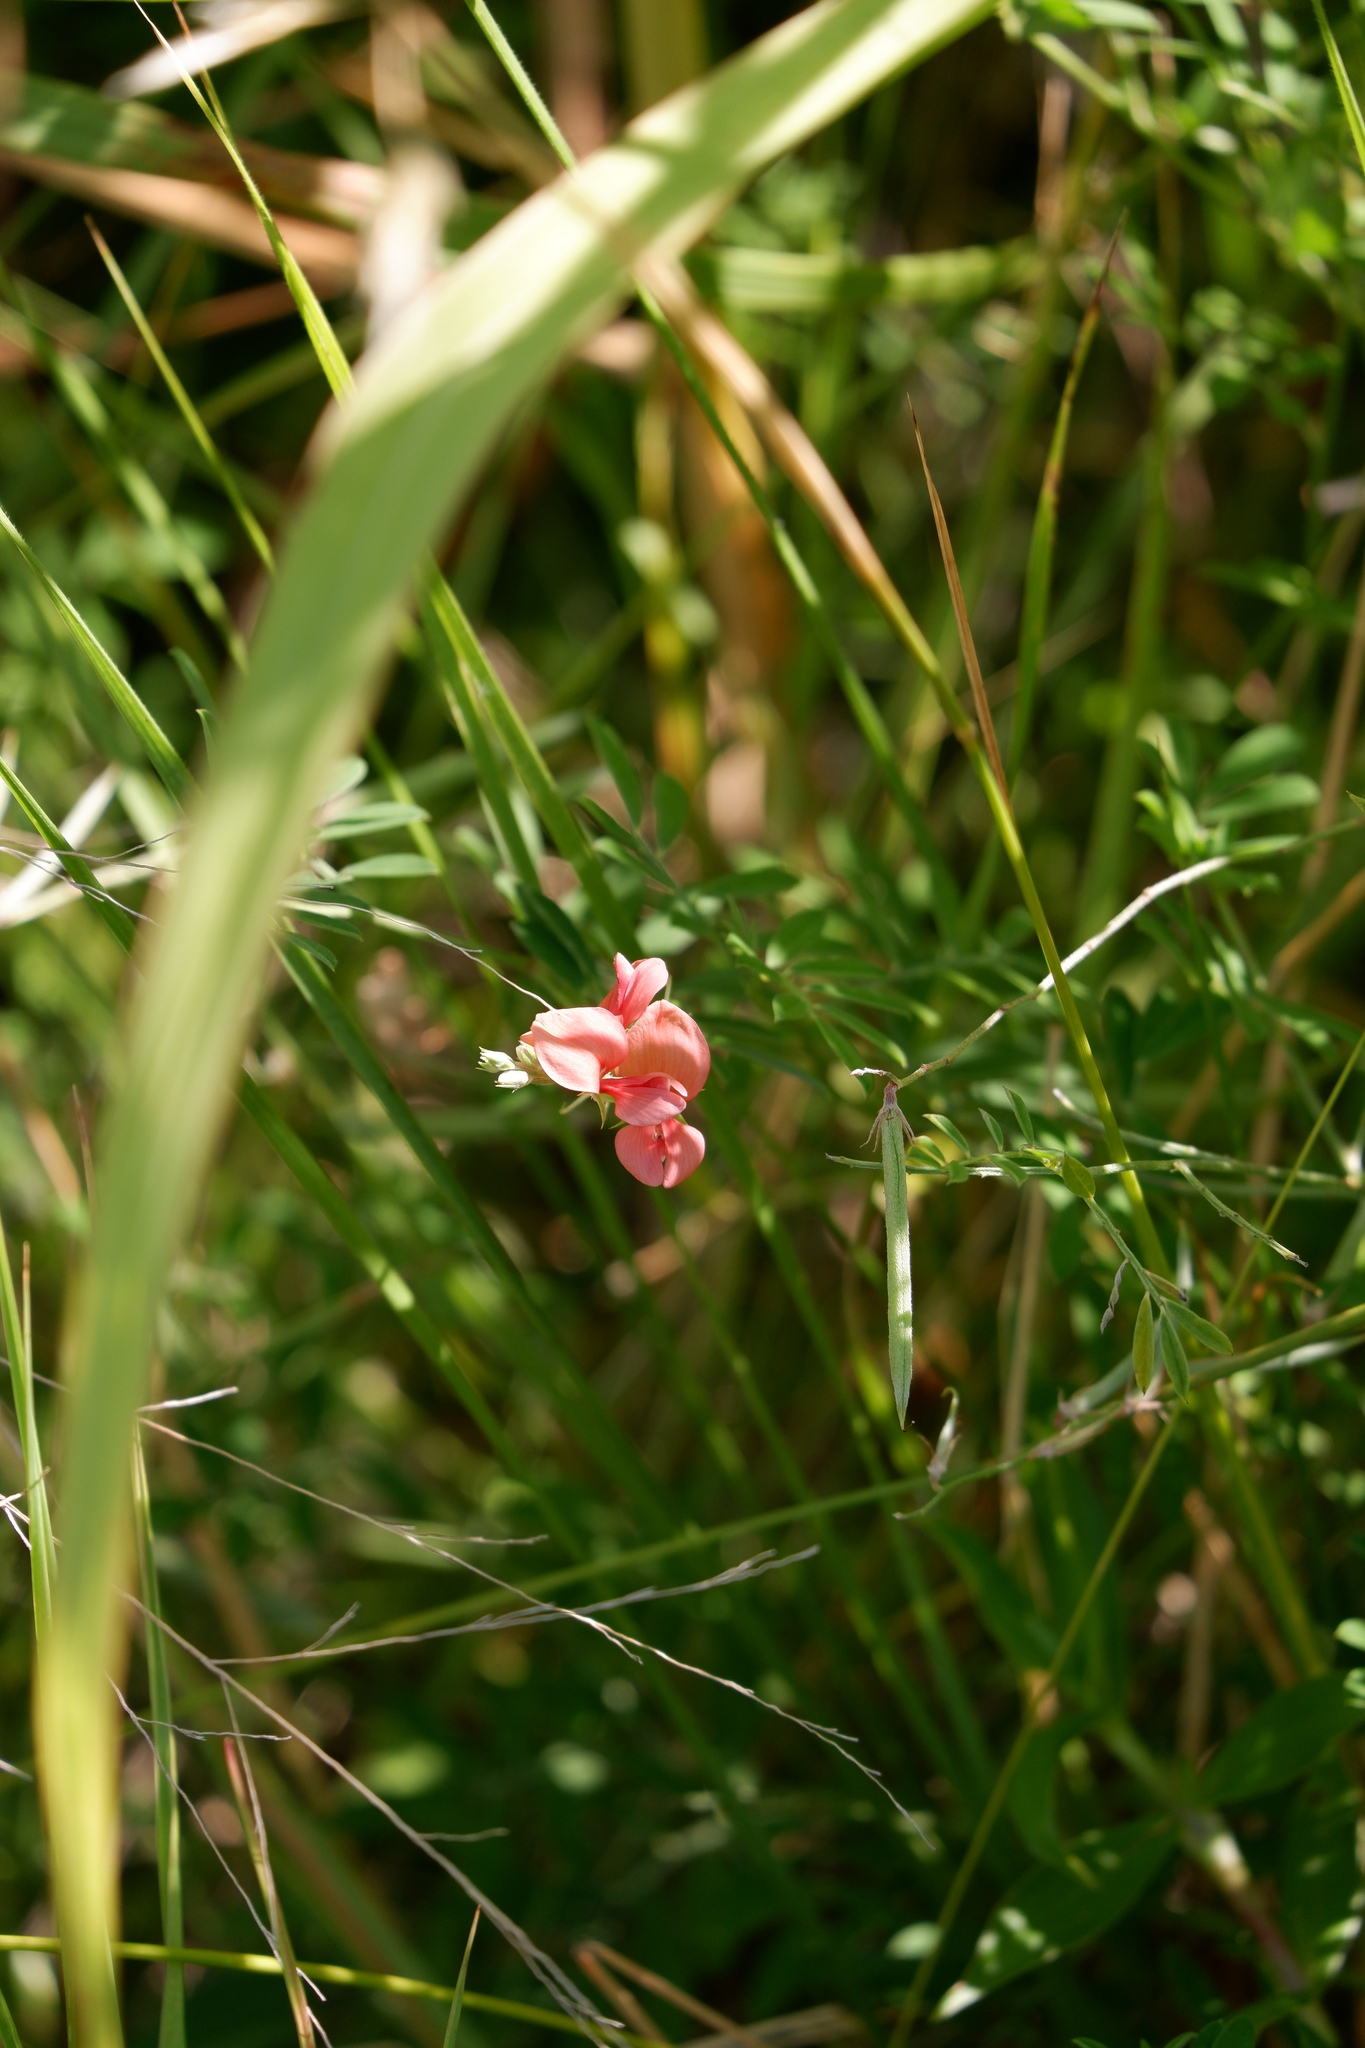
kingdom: Plantae
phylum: Tracheophyta
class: Magnoliopsida
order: Fabales
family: Fabaceae
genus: Indigofera
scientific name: Indigofera miniata
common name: Coast indigo
